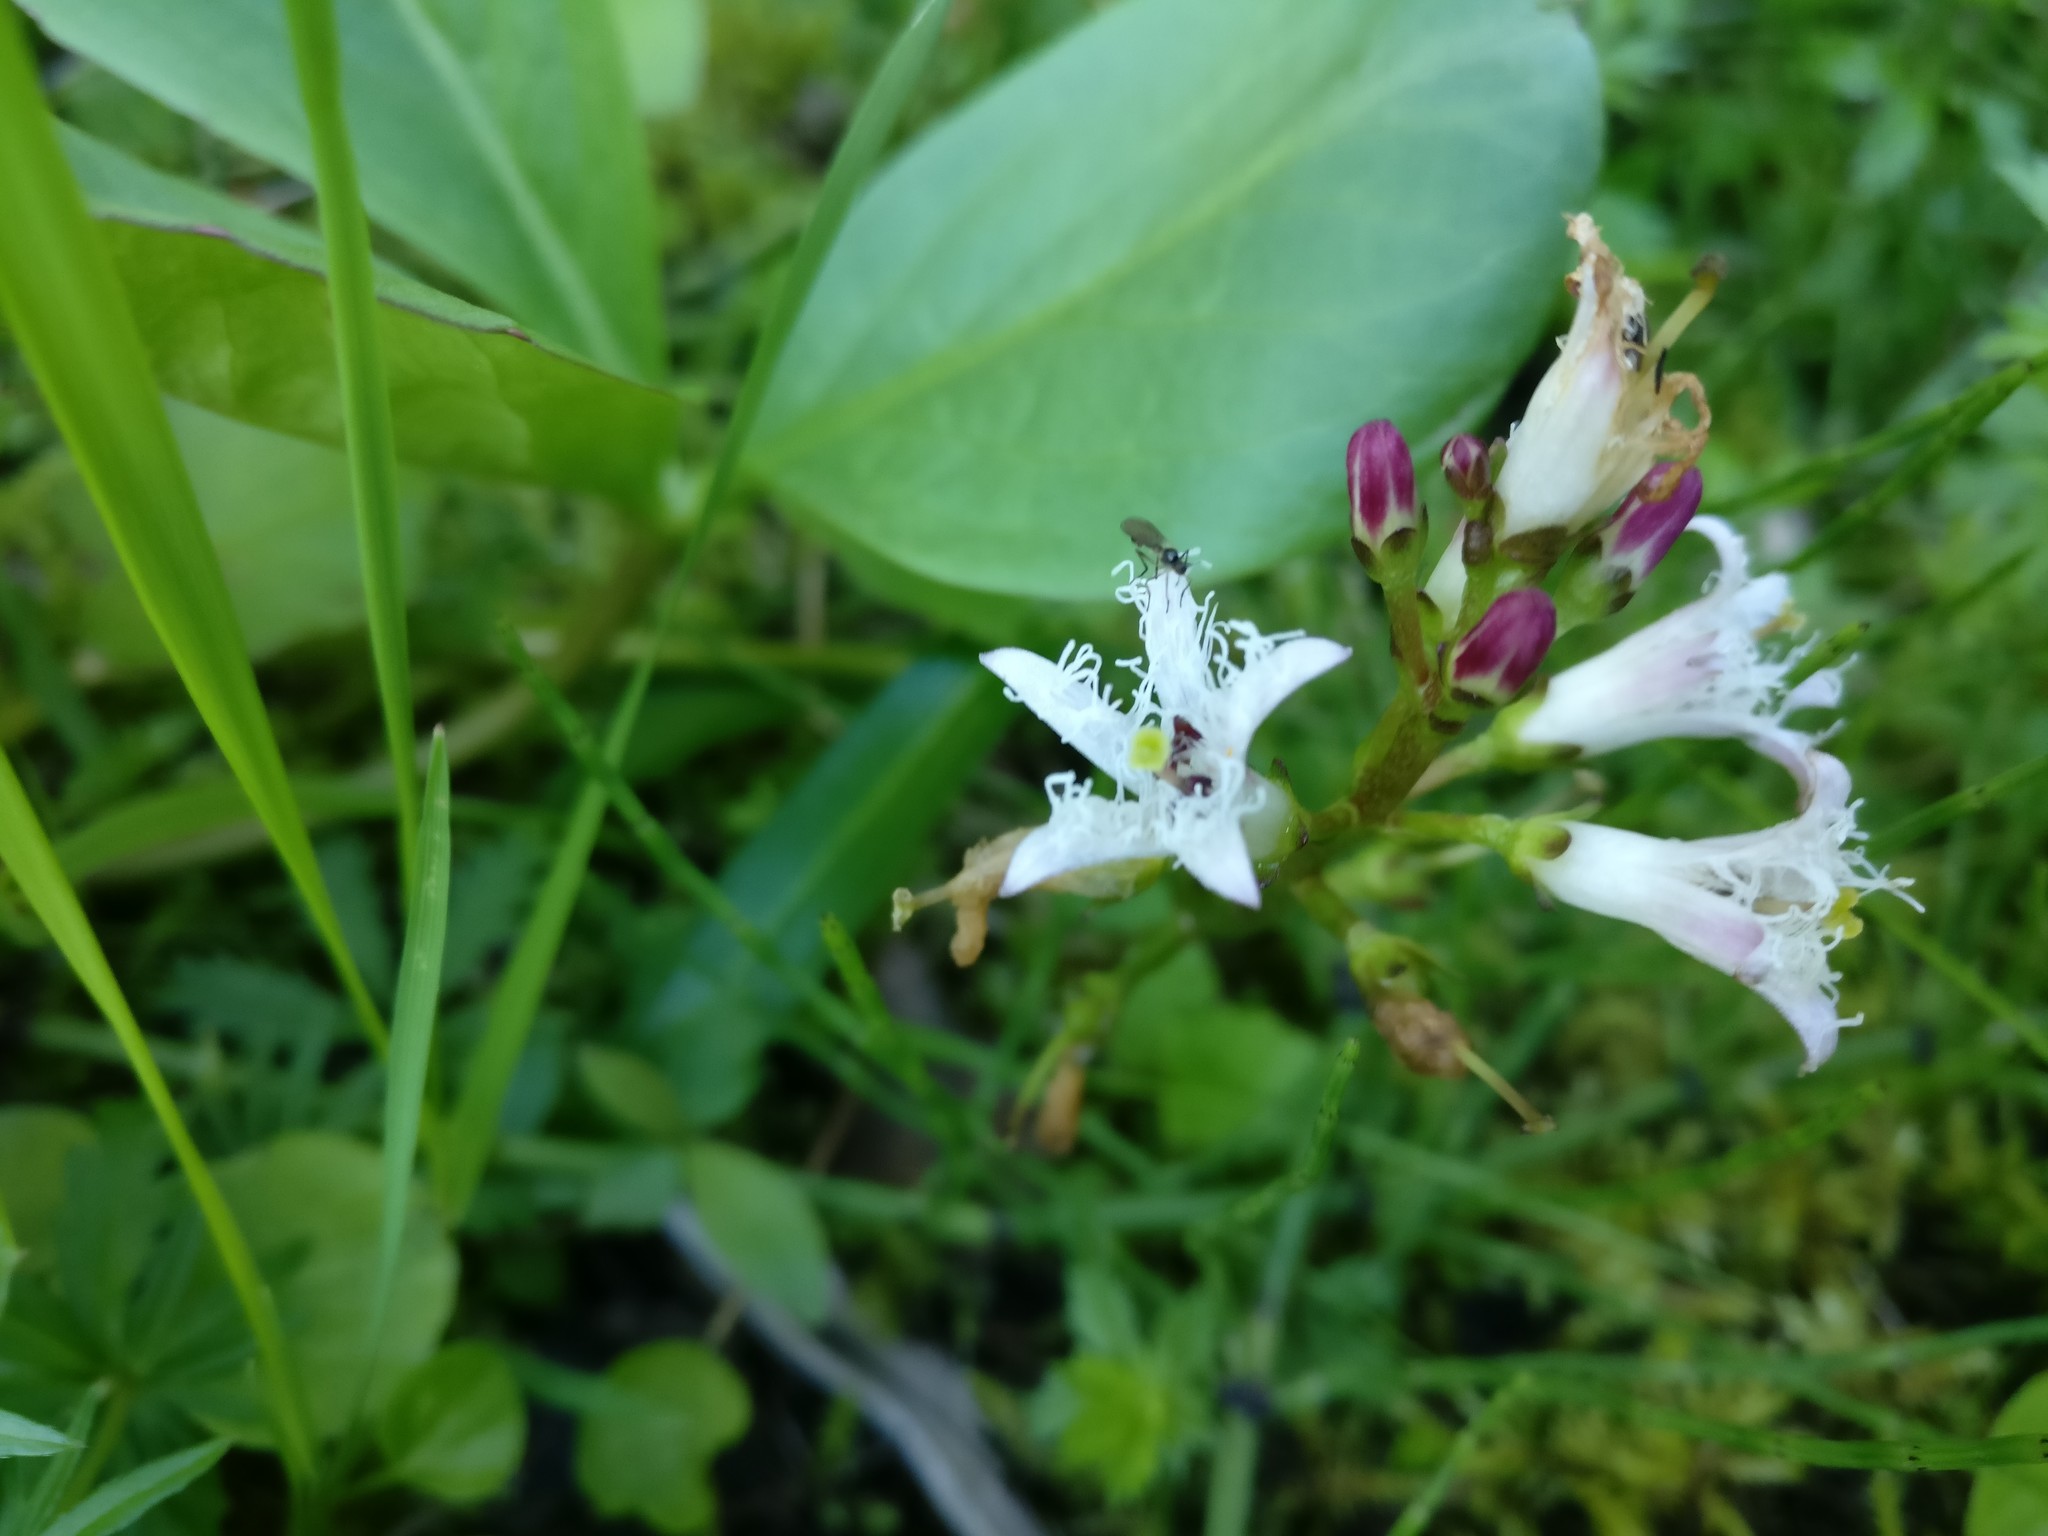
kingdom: Plantae
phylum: Tracheophyta
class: Magnoliopsida
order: Asterales
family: Menyanthaceae
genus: Menyanthes
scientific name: Menyanthes trifoliata
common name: Bogbean
